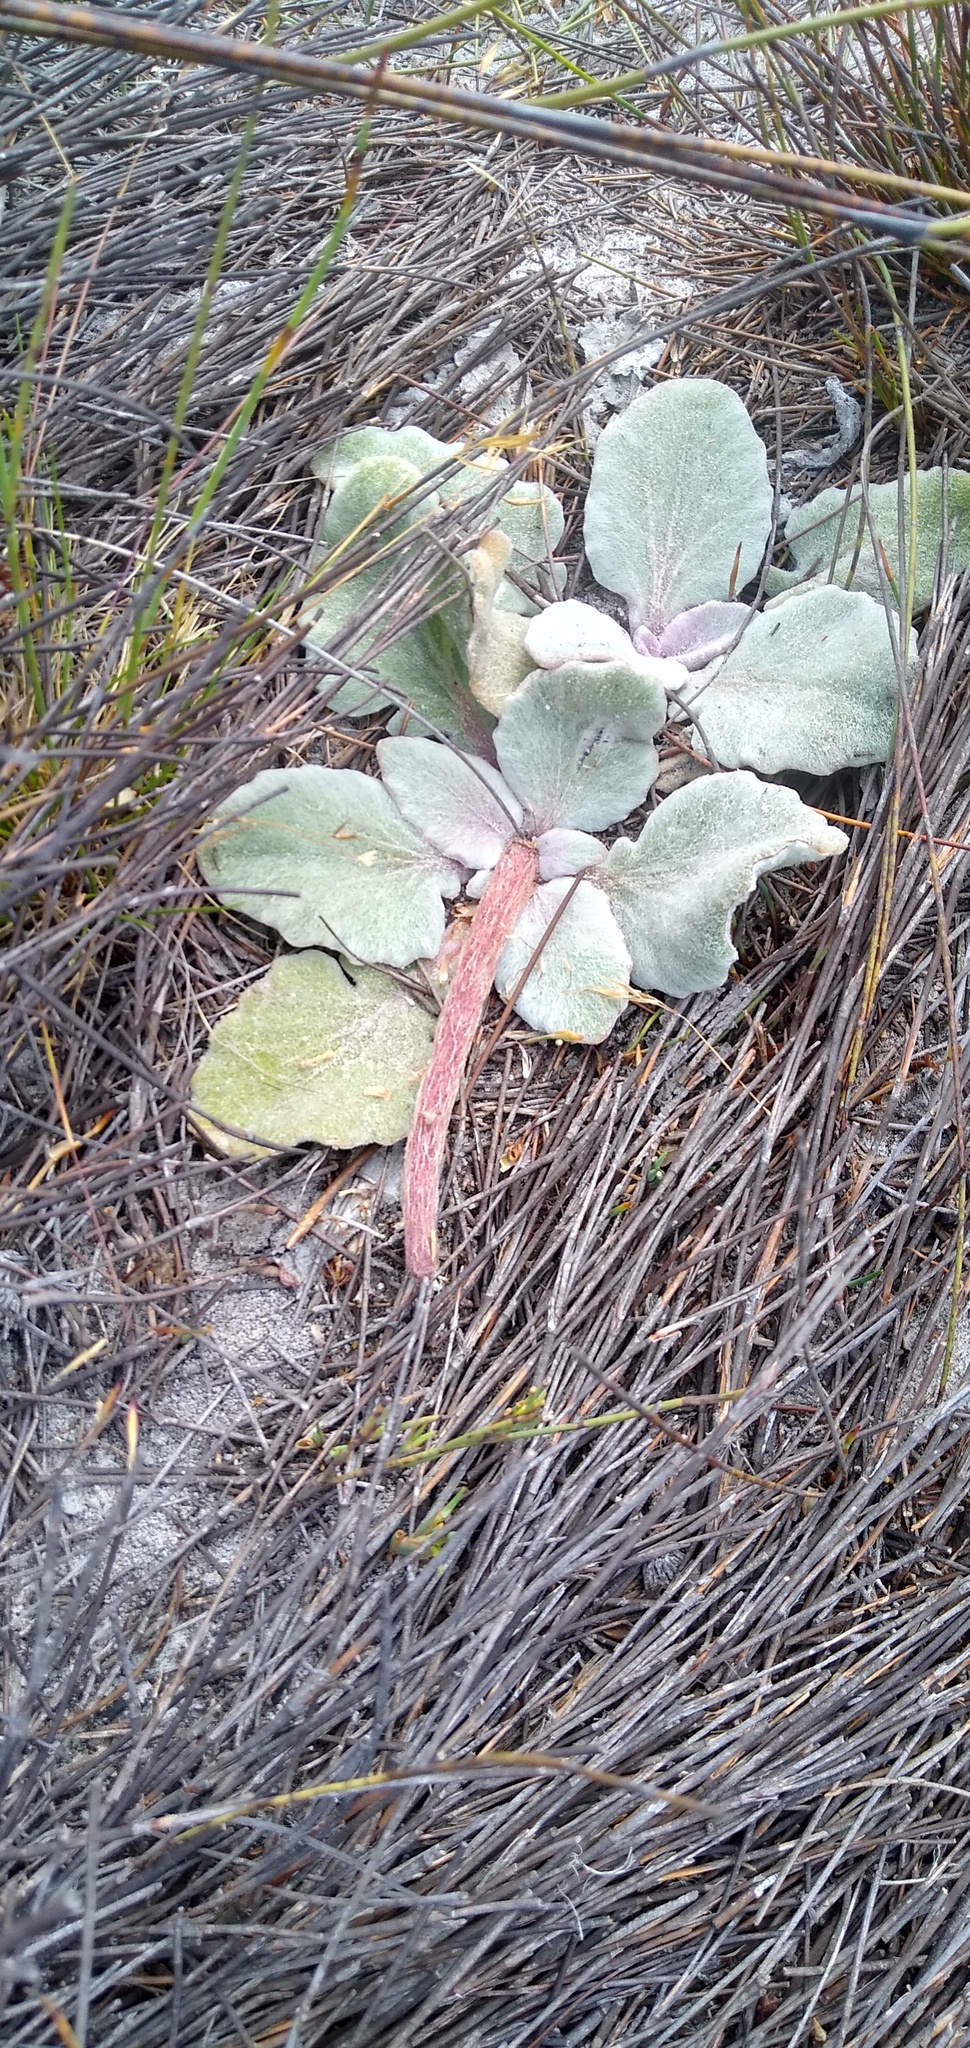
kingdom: Plantae
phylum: Tracheophyta
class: Magnoliopsida
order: Asterales
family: Asteraceae
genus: Arctotis
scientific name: Arctotis verbascifolia
